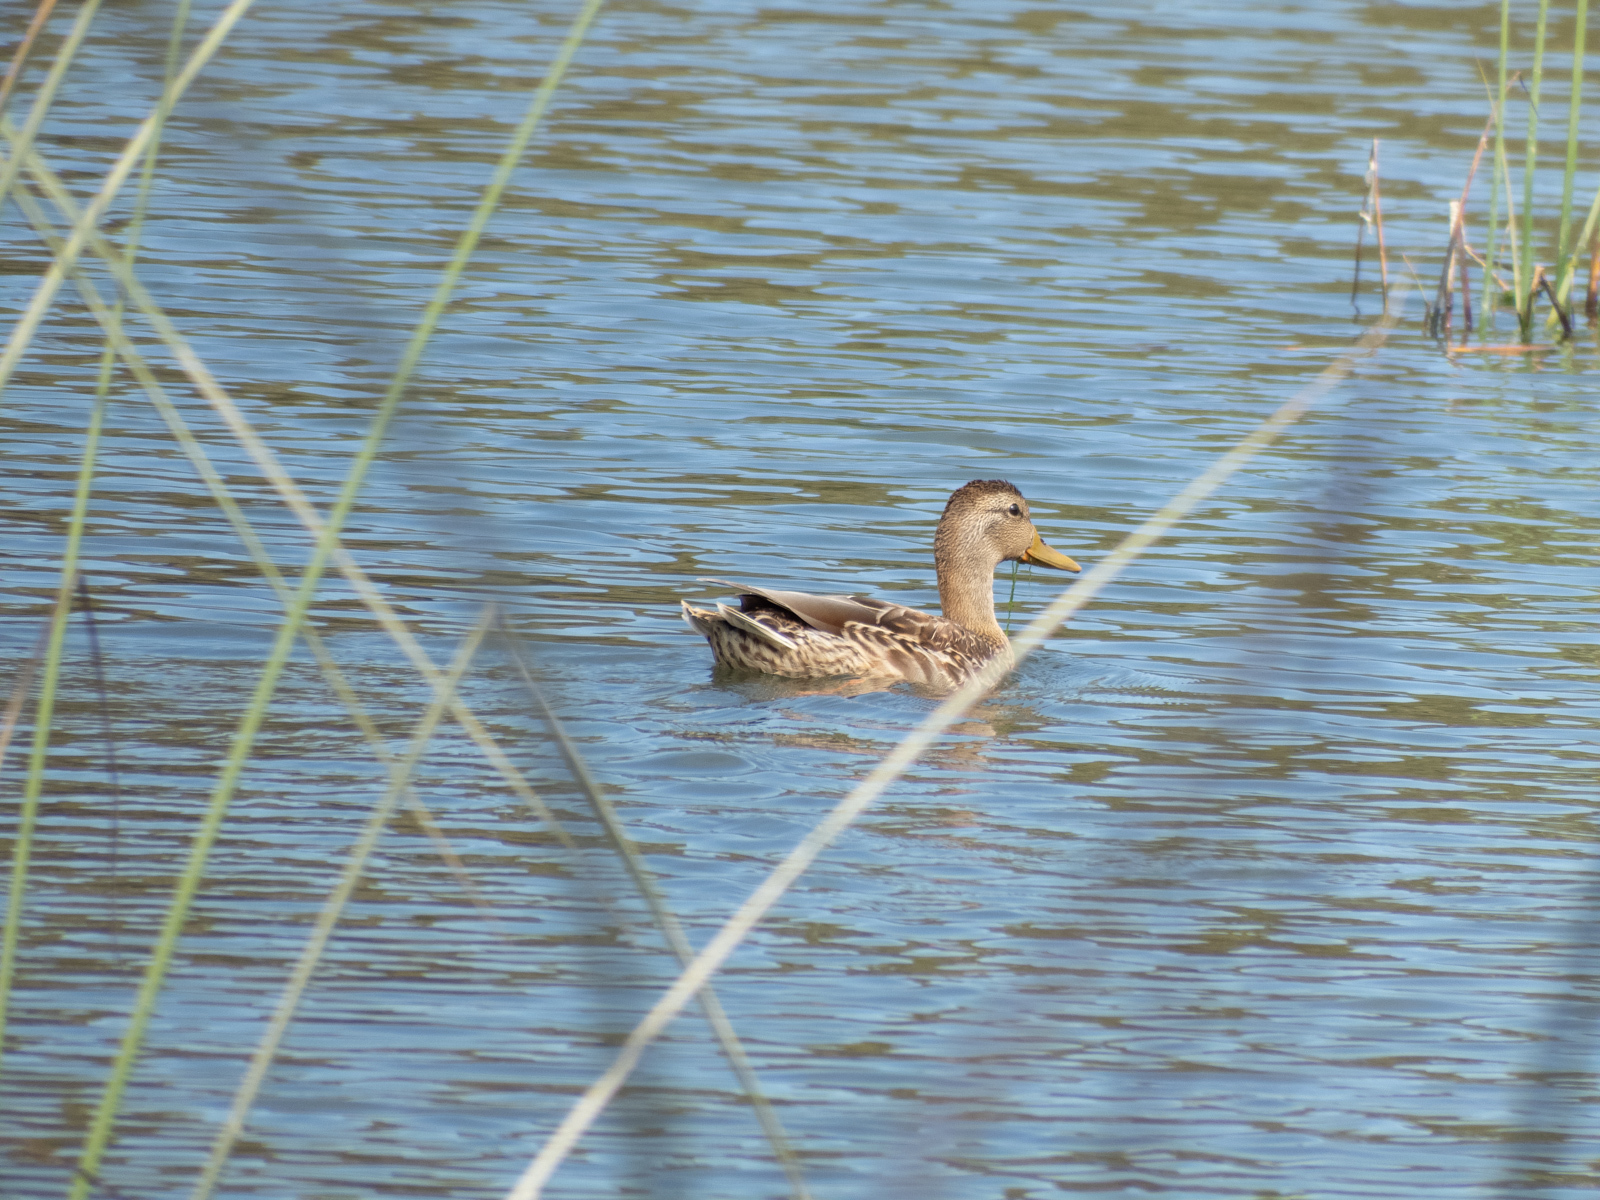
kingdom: Animalia
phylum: Chordata
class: Aves
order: Anseriformes
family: Anatidae
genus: Anas
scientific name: Anas platyrhynchos
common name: Mallard
